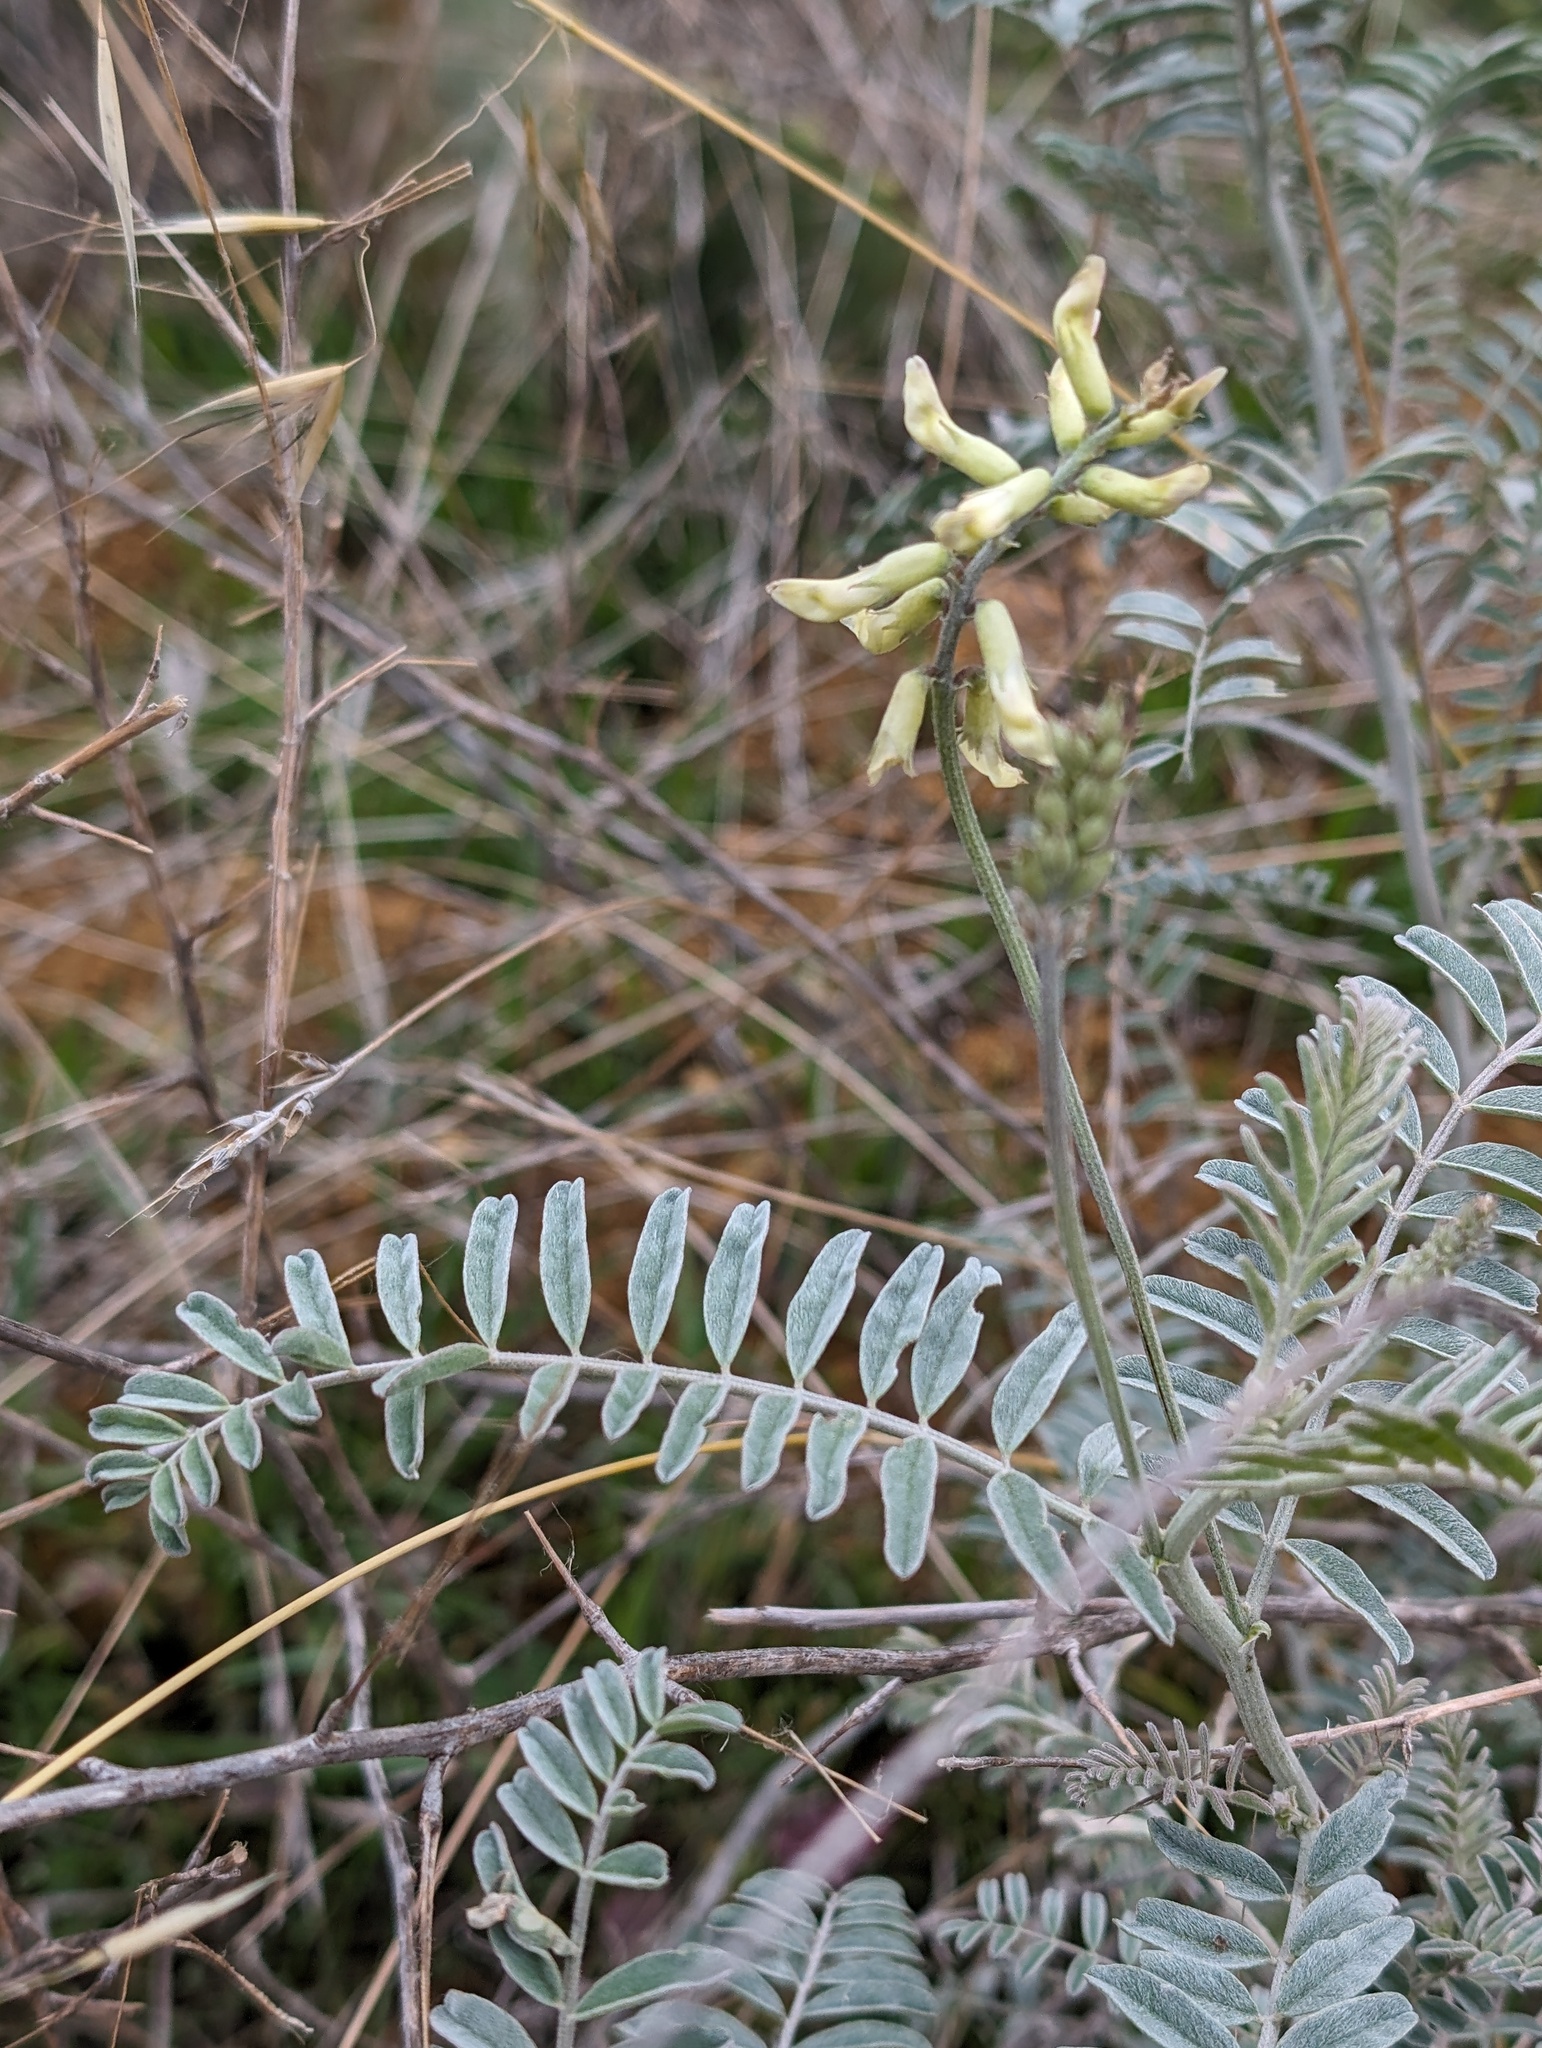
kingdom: Plantae
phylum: Tracheophyta
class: Magnoliopsida
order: Fabales
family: Fabaceae
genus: Astragalus
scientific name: Astragalus trichopodus
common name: Santa barbara milk-vetch
